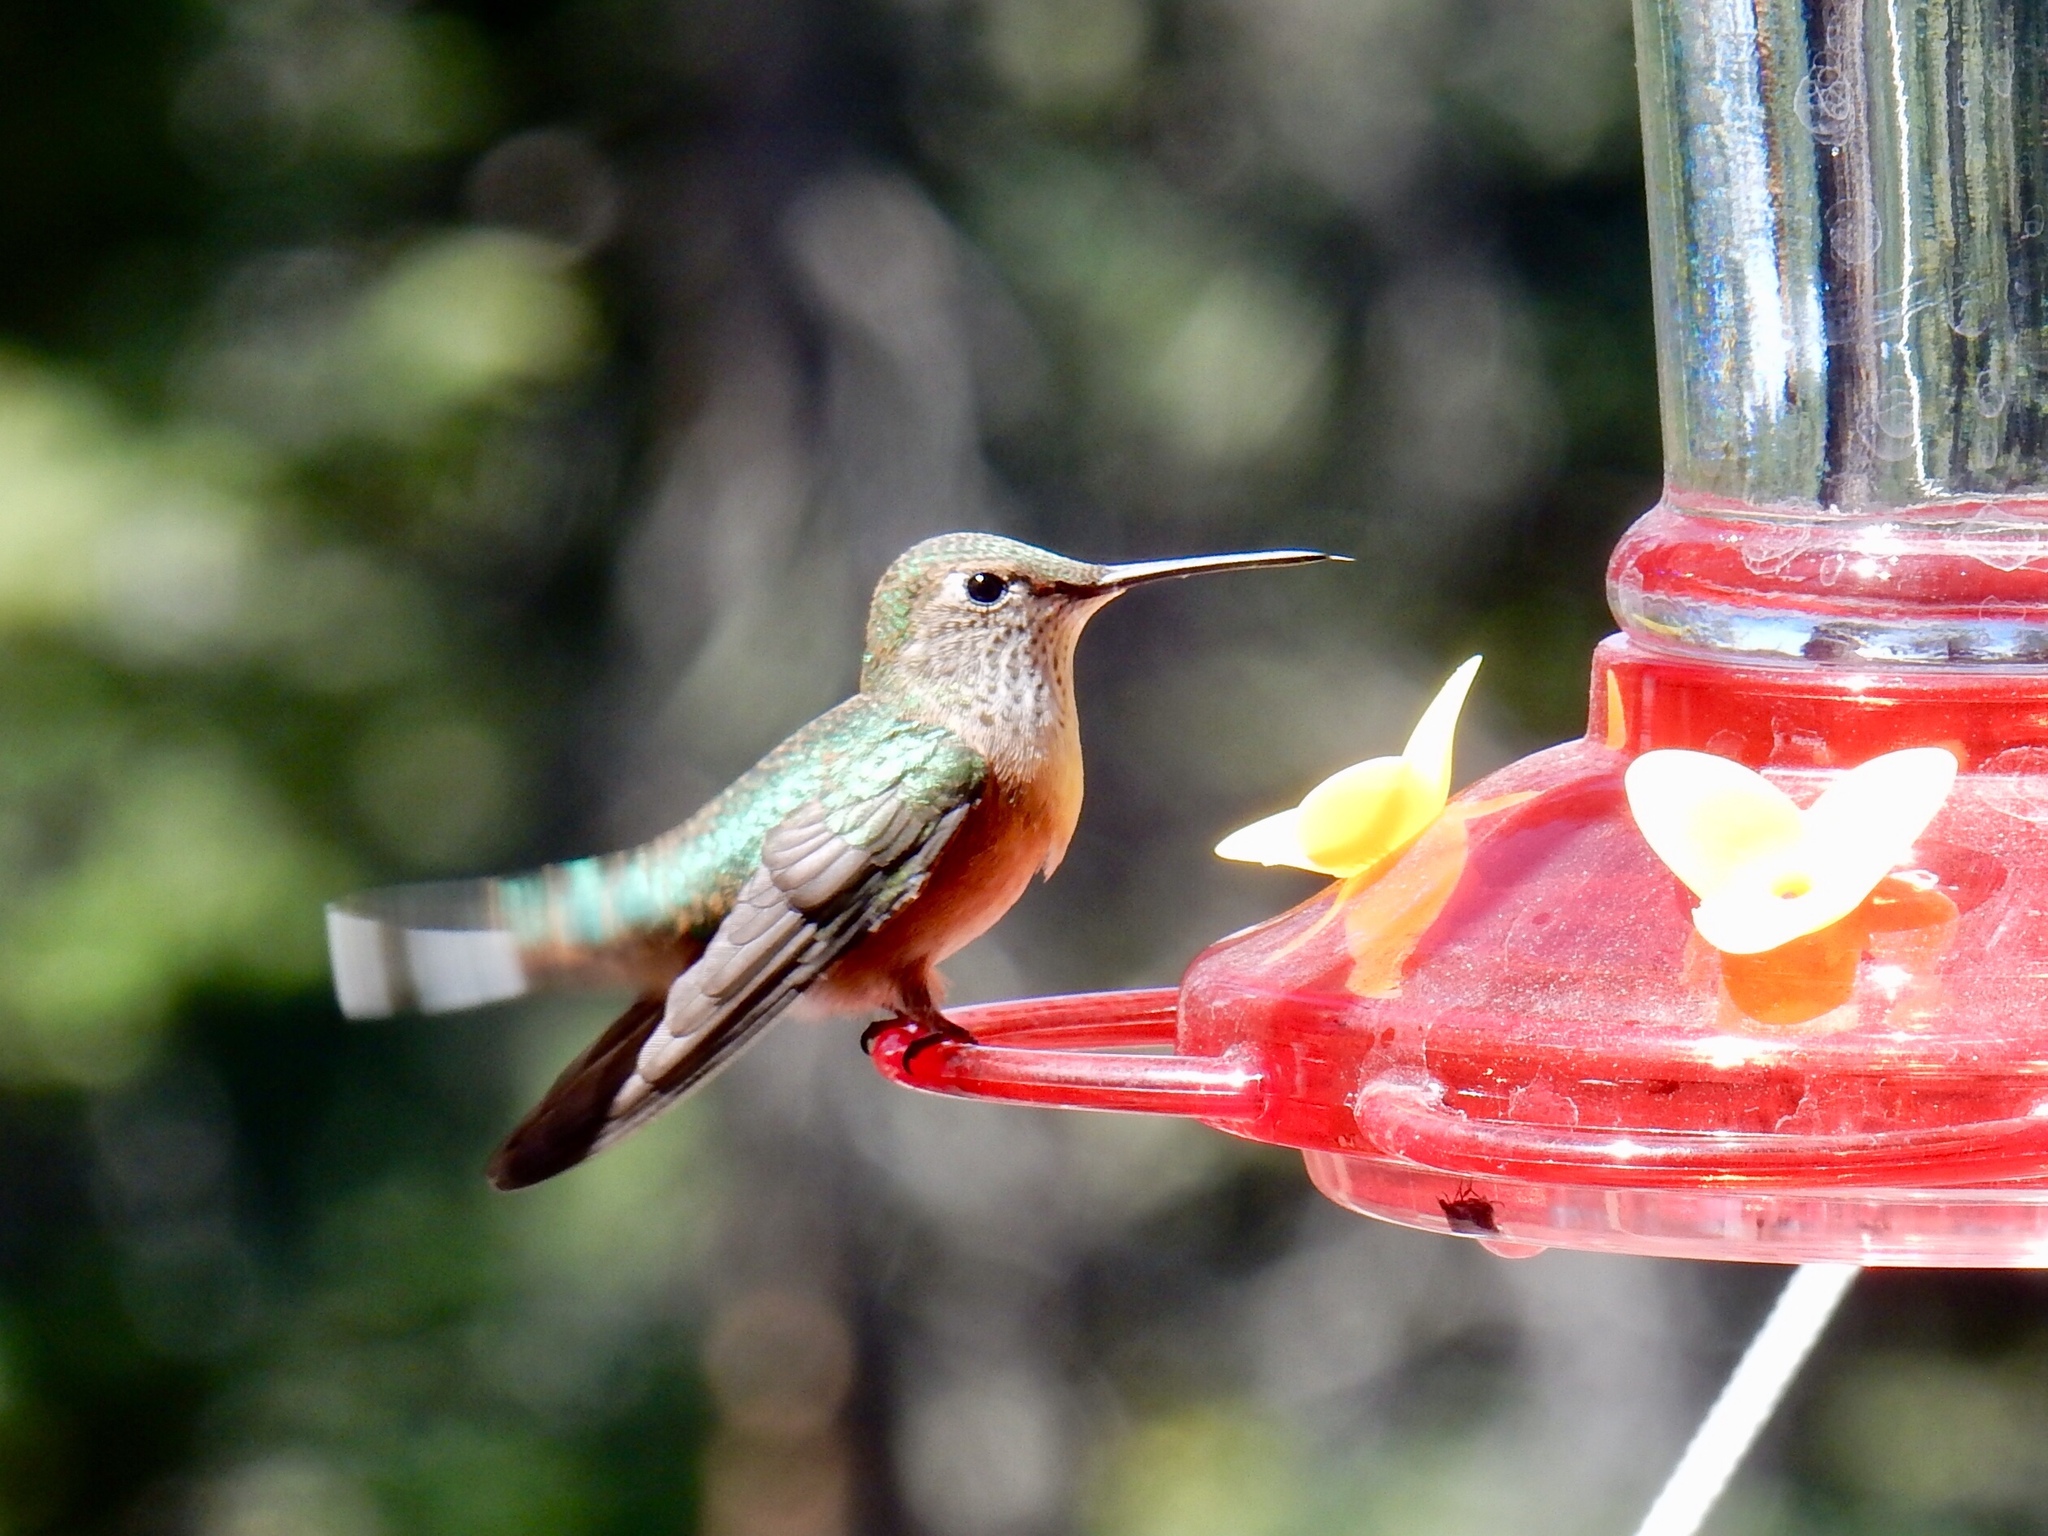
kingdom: Animalia
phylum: Chordata
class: Aves
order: Apodiformes
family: Trochilidae
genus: Selasphorus
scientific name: Selasphorus platycercus
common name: Broad-tailed hummingbird
